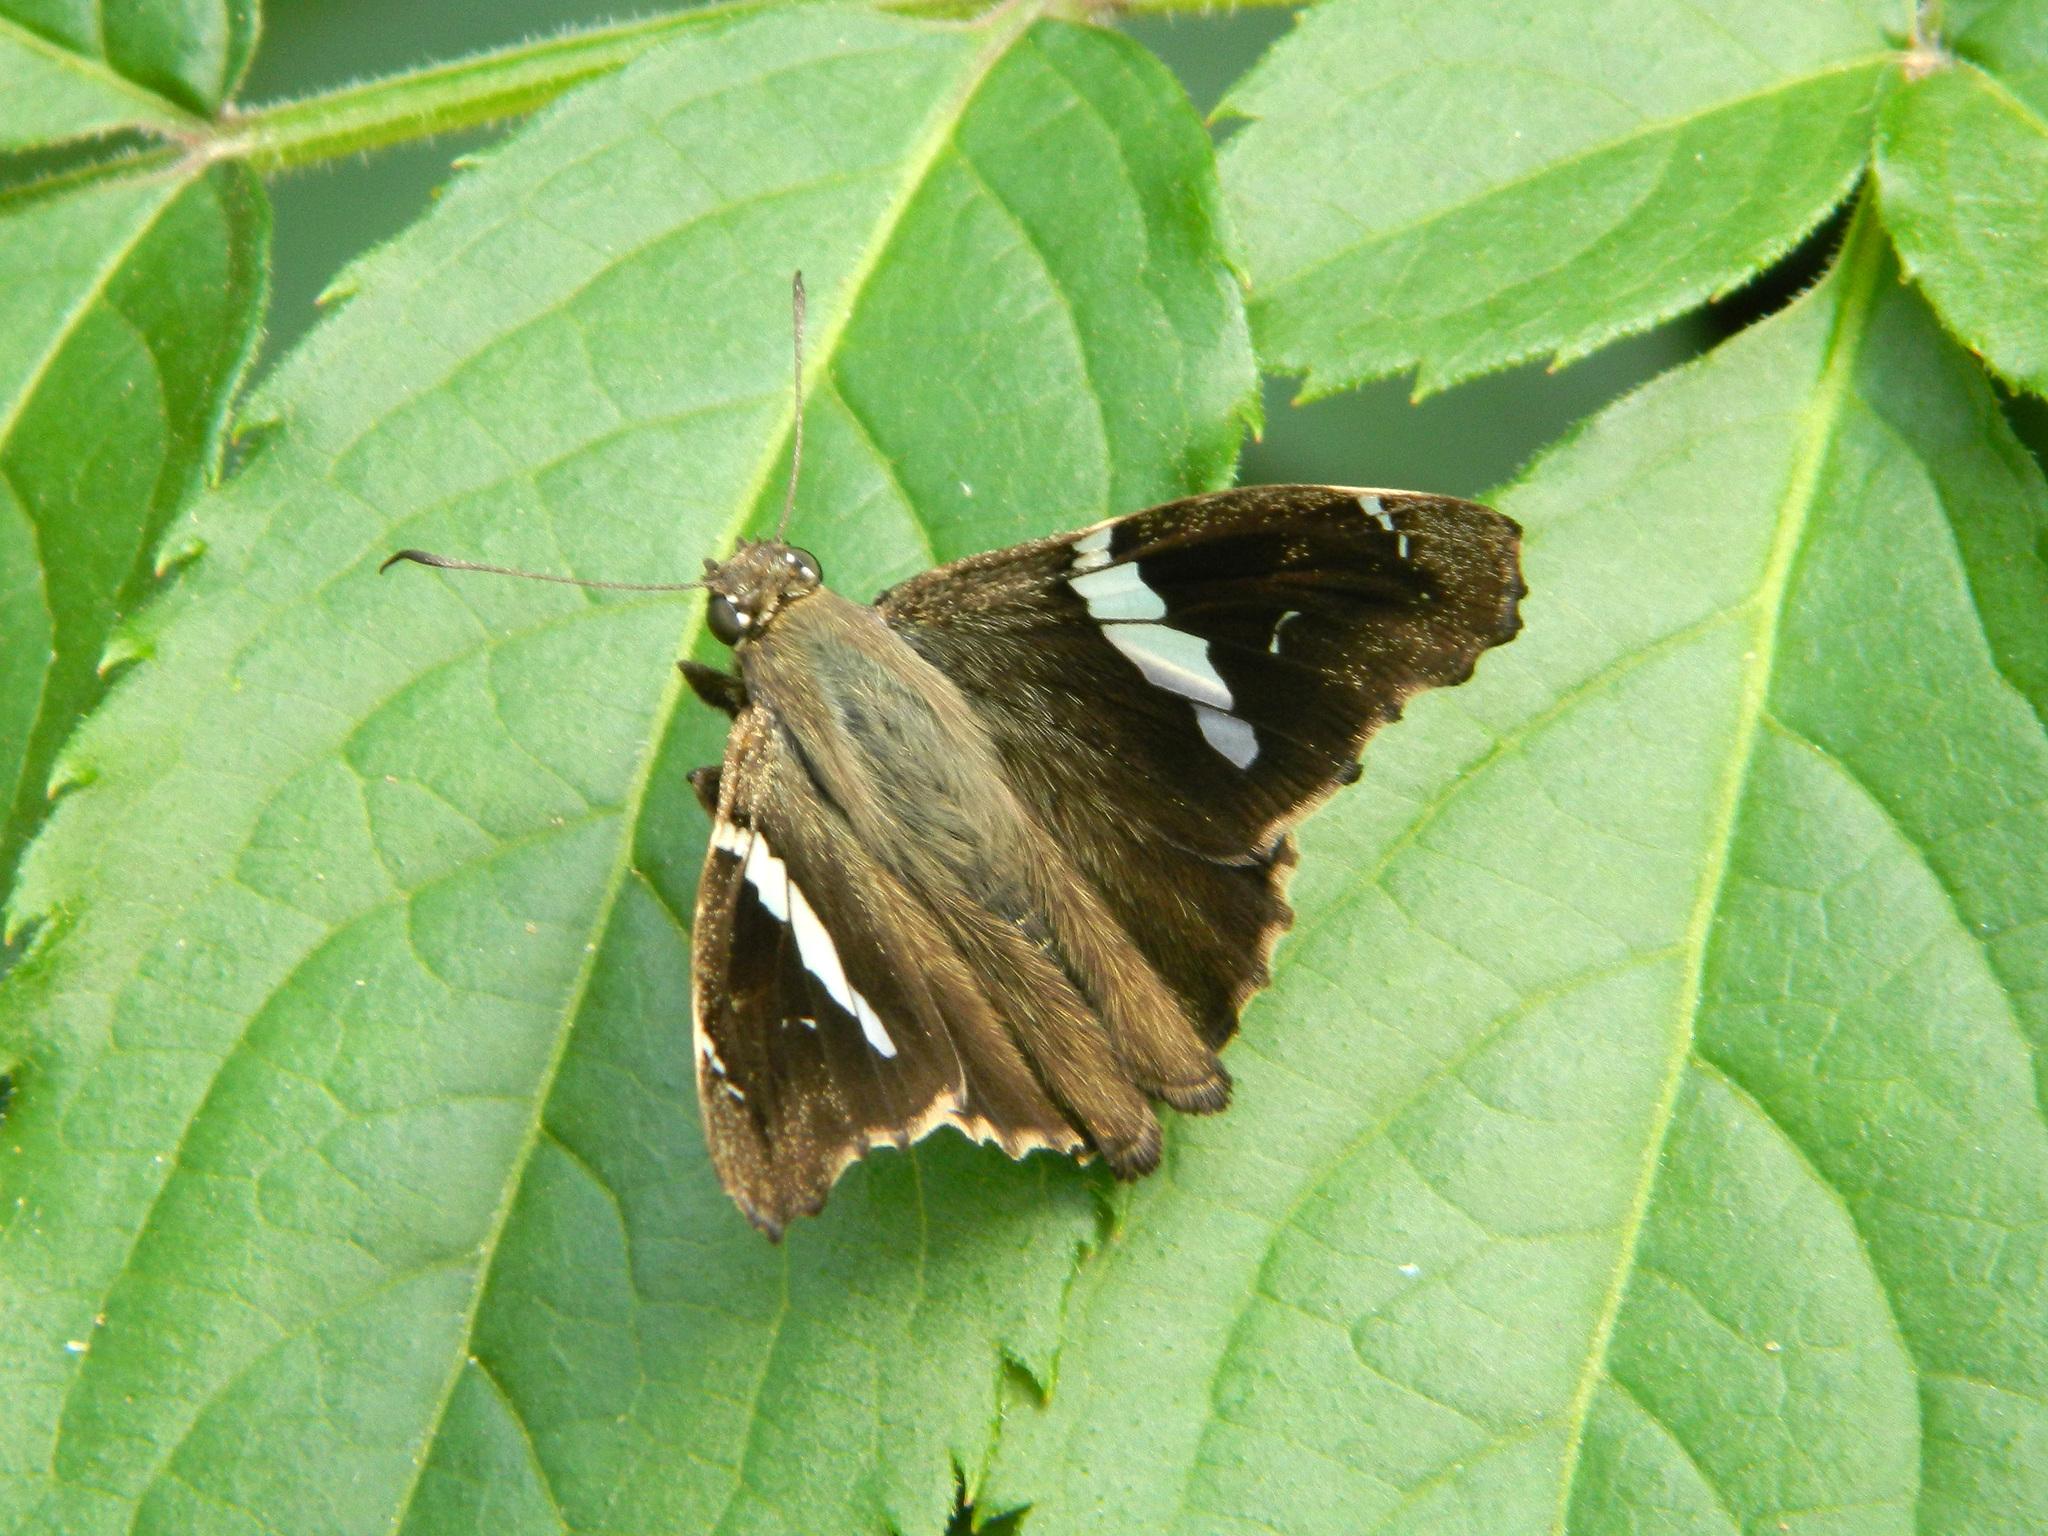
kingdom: Animalia
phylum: Arthropoda
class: Insecta
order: Lepidoptera
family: Hesperiidae
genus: Spathilepia
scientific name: Spathilepia clonius
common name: Falcate skipper
